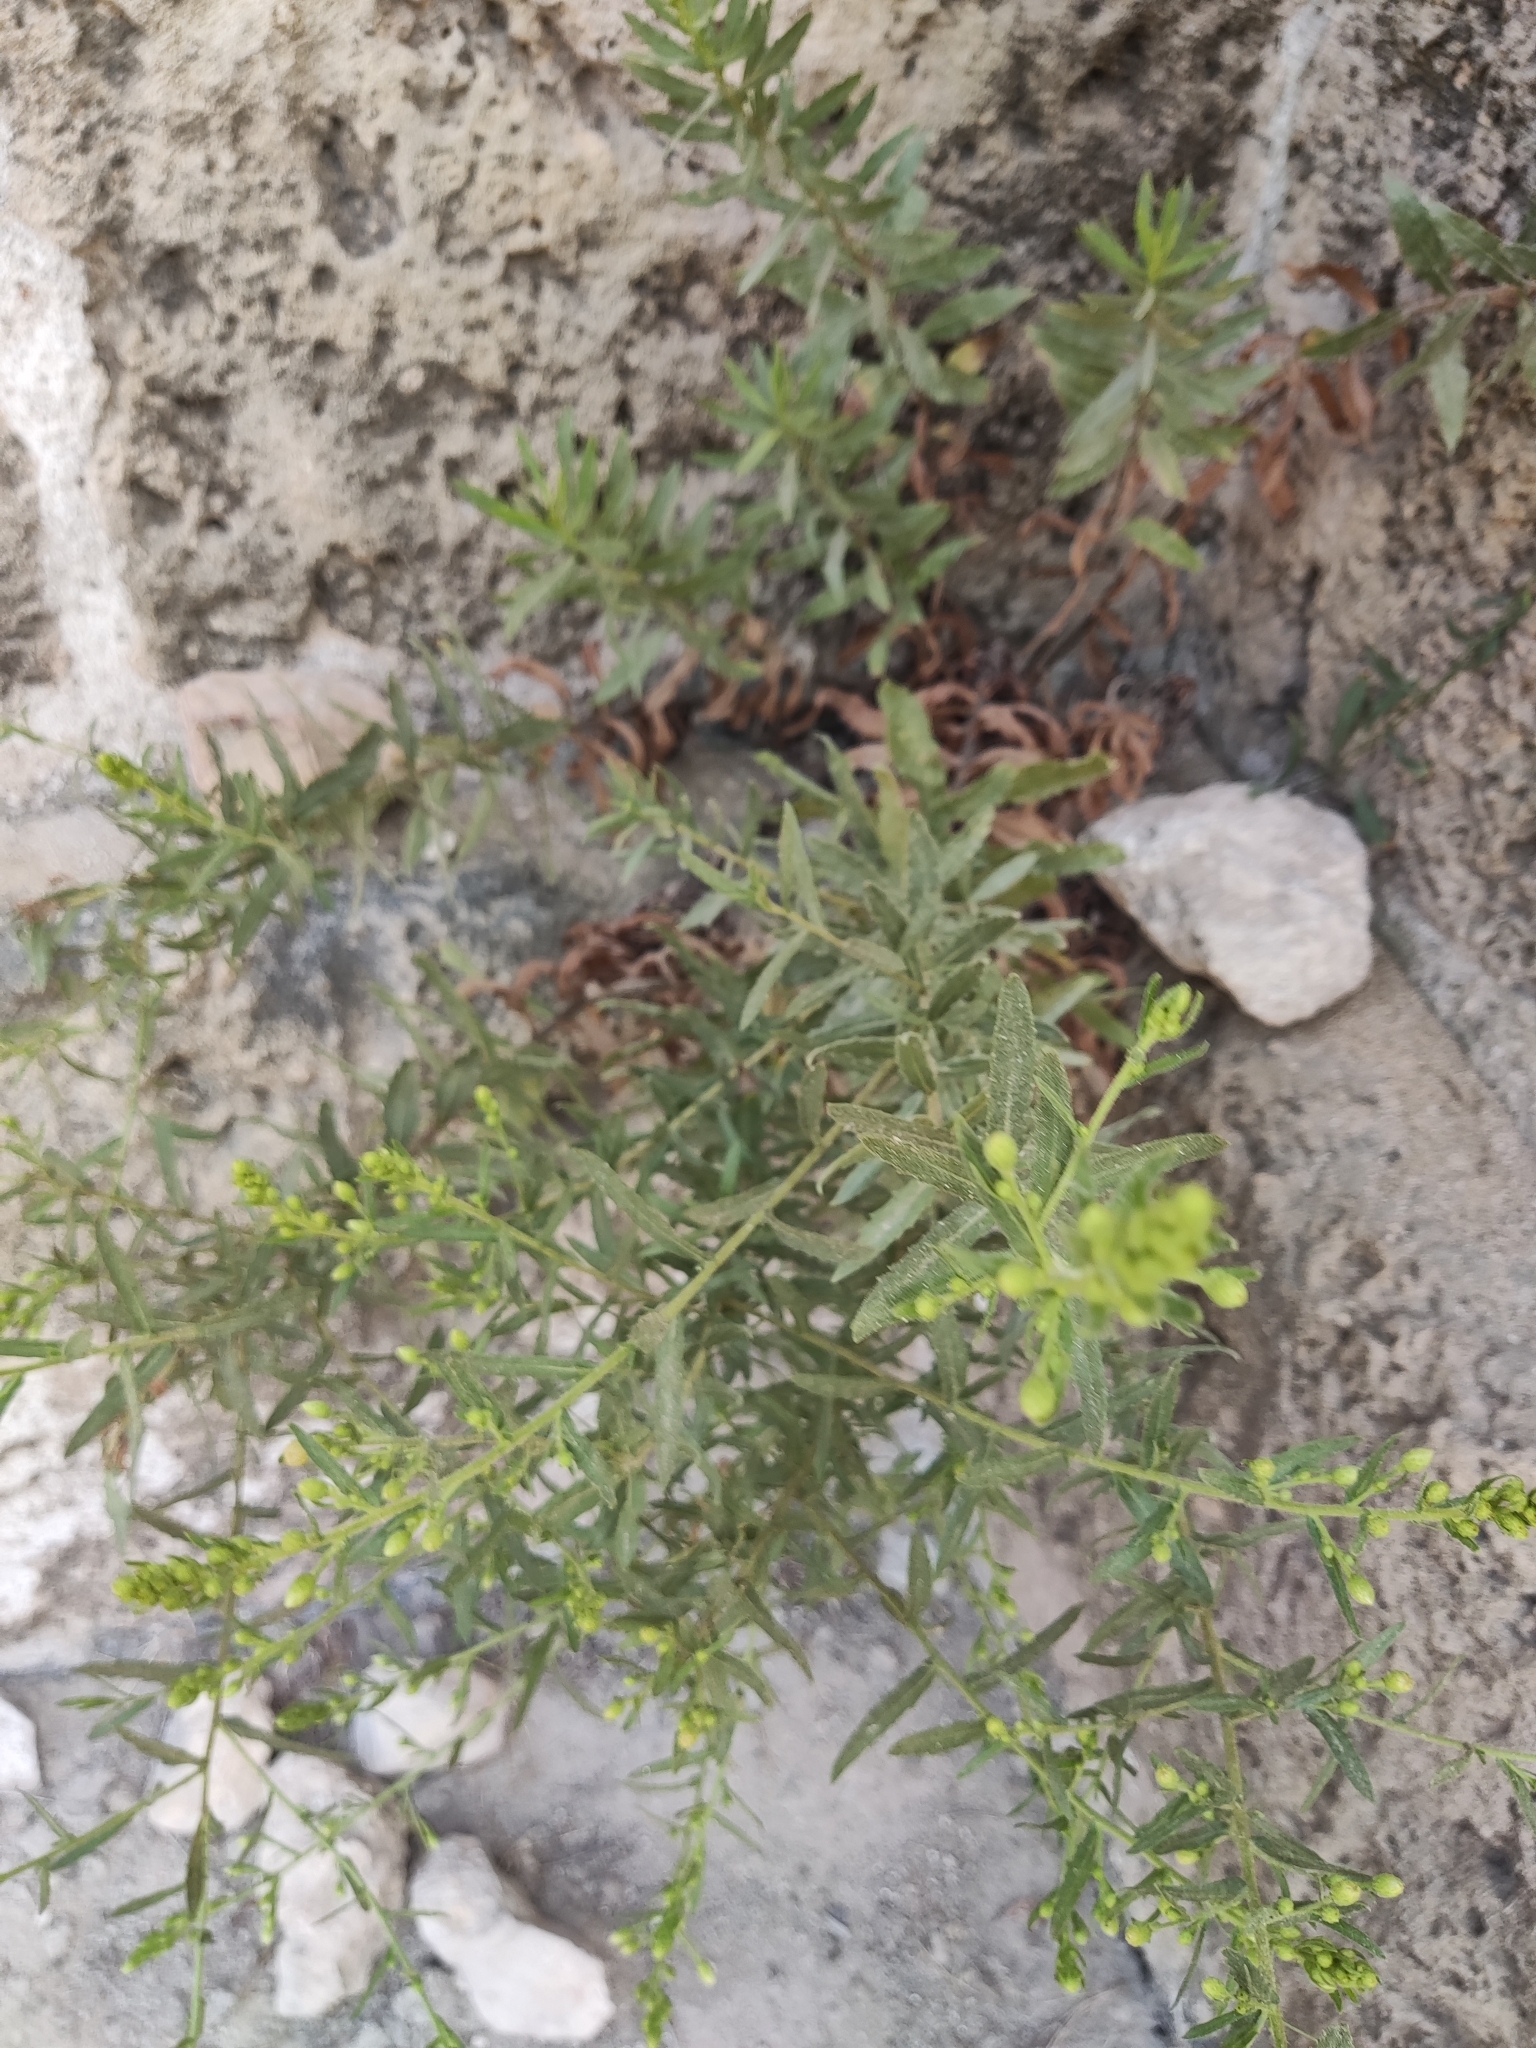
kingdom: Plantae
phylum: Tracheophyta
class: Magnoliopsida
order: Asterales
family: Asteraceae
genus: Dittrichia
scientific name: Dittrichia viscosa
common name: Woody fleabane
